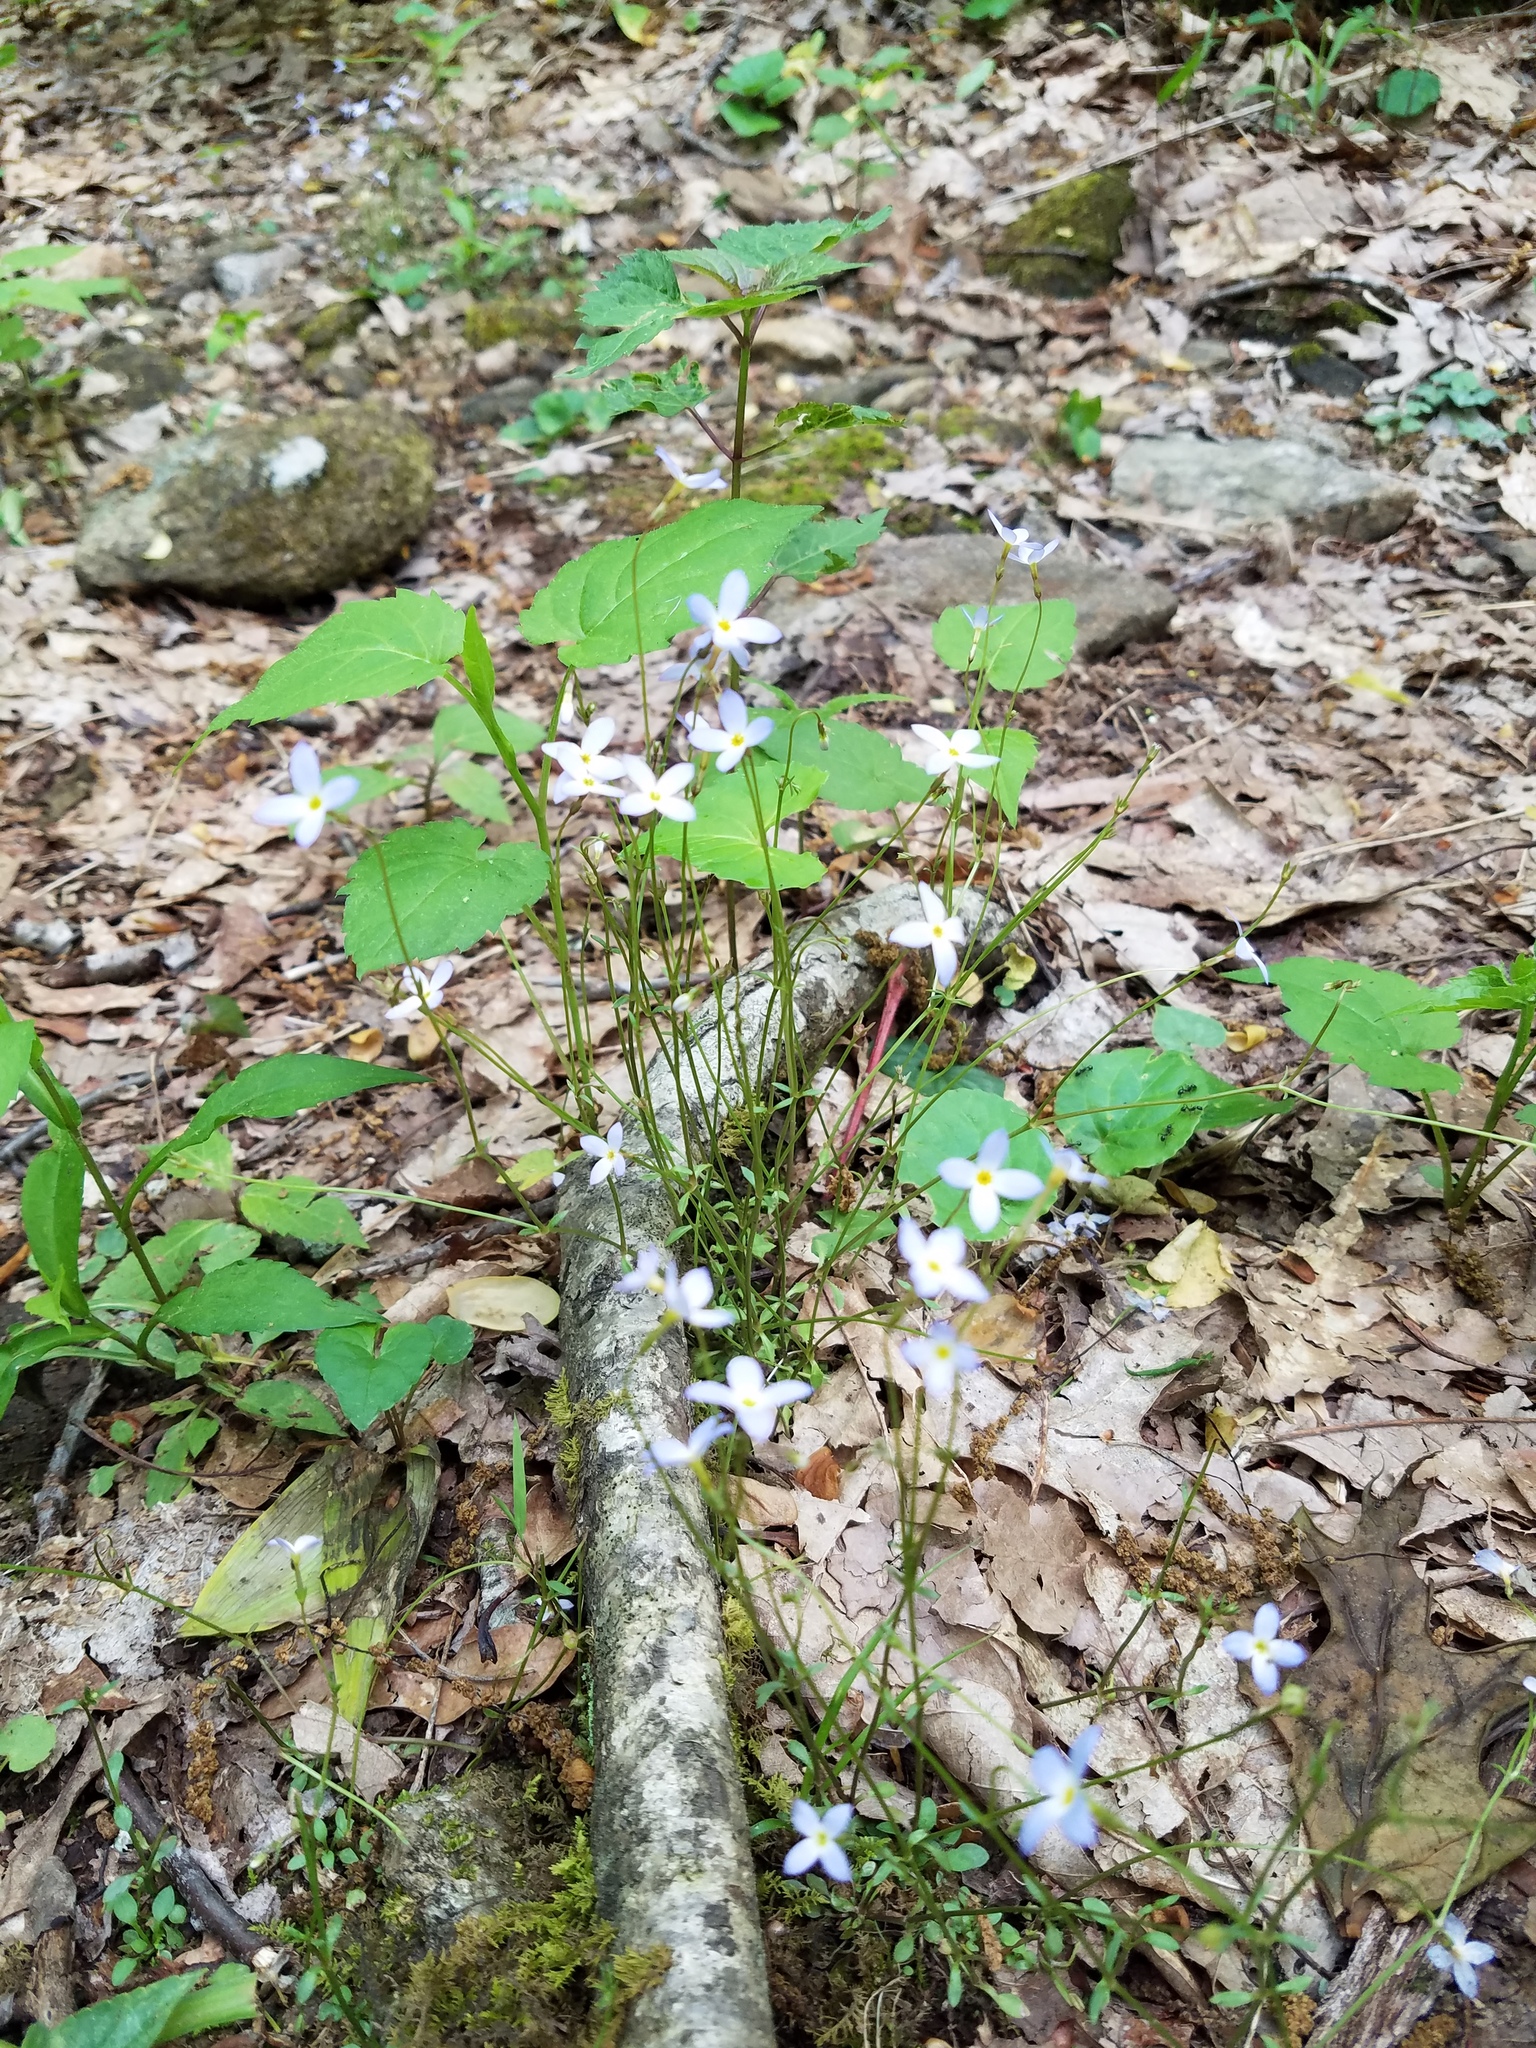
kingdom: Plantae
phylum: Tracheophyta
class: Magnoliopsida
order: Gentianales
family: Rubiaceae
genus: Houstonia
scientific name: Houstonia caerulea
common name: Bluets
